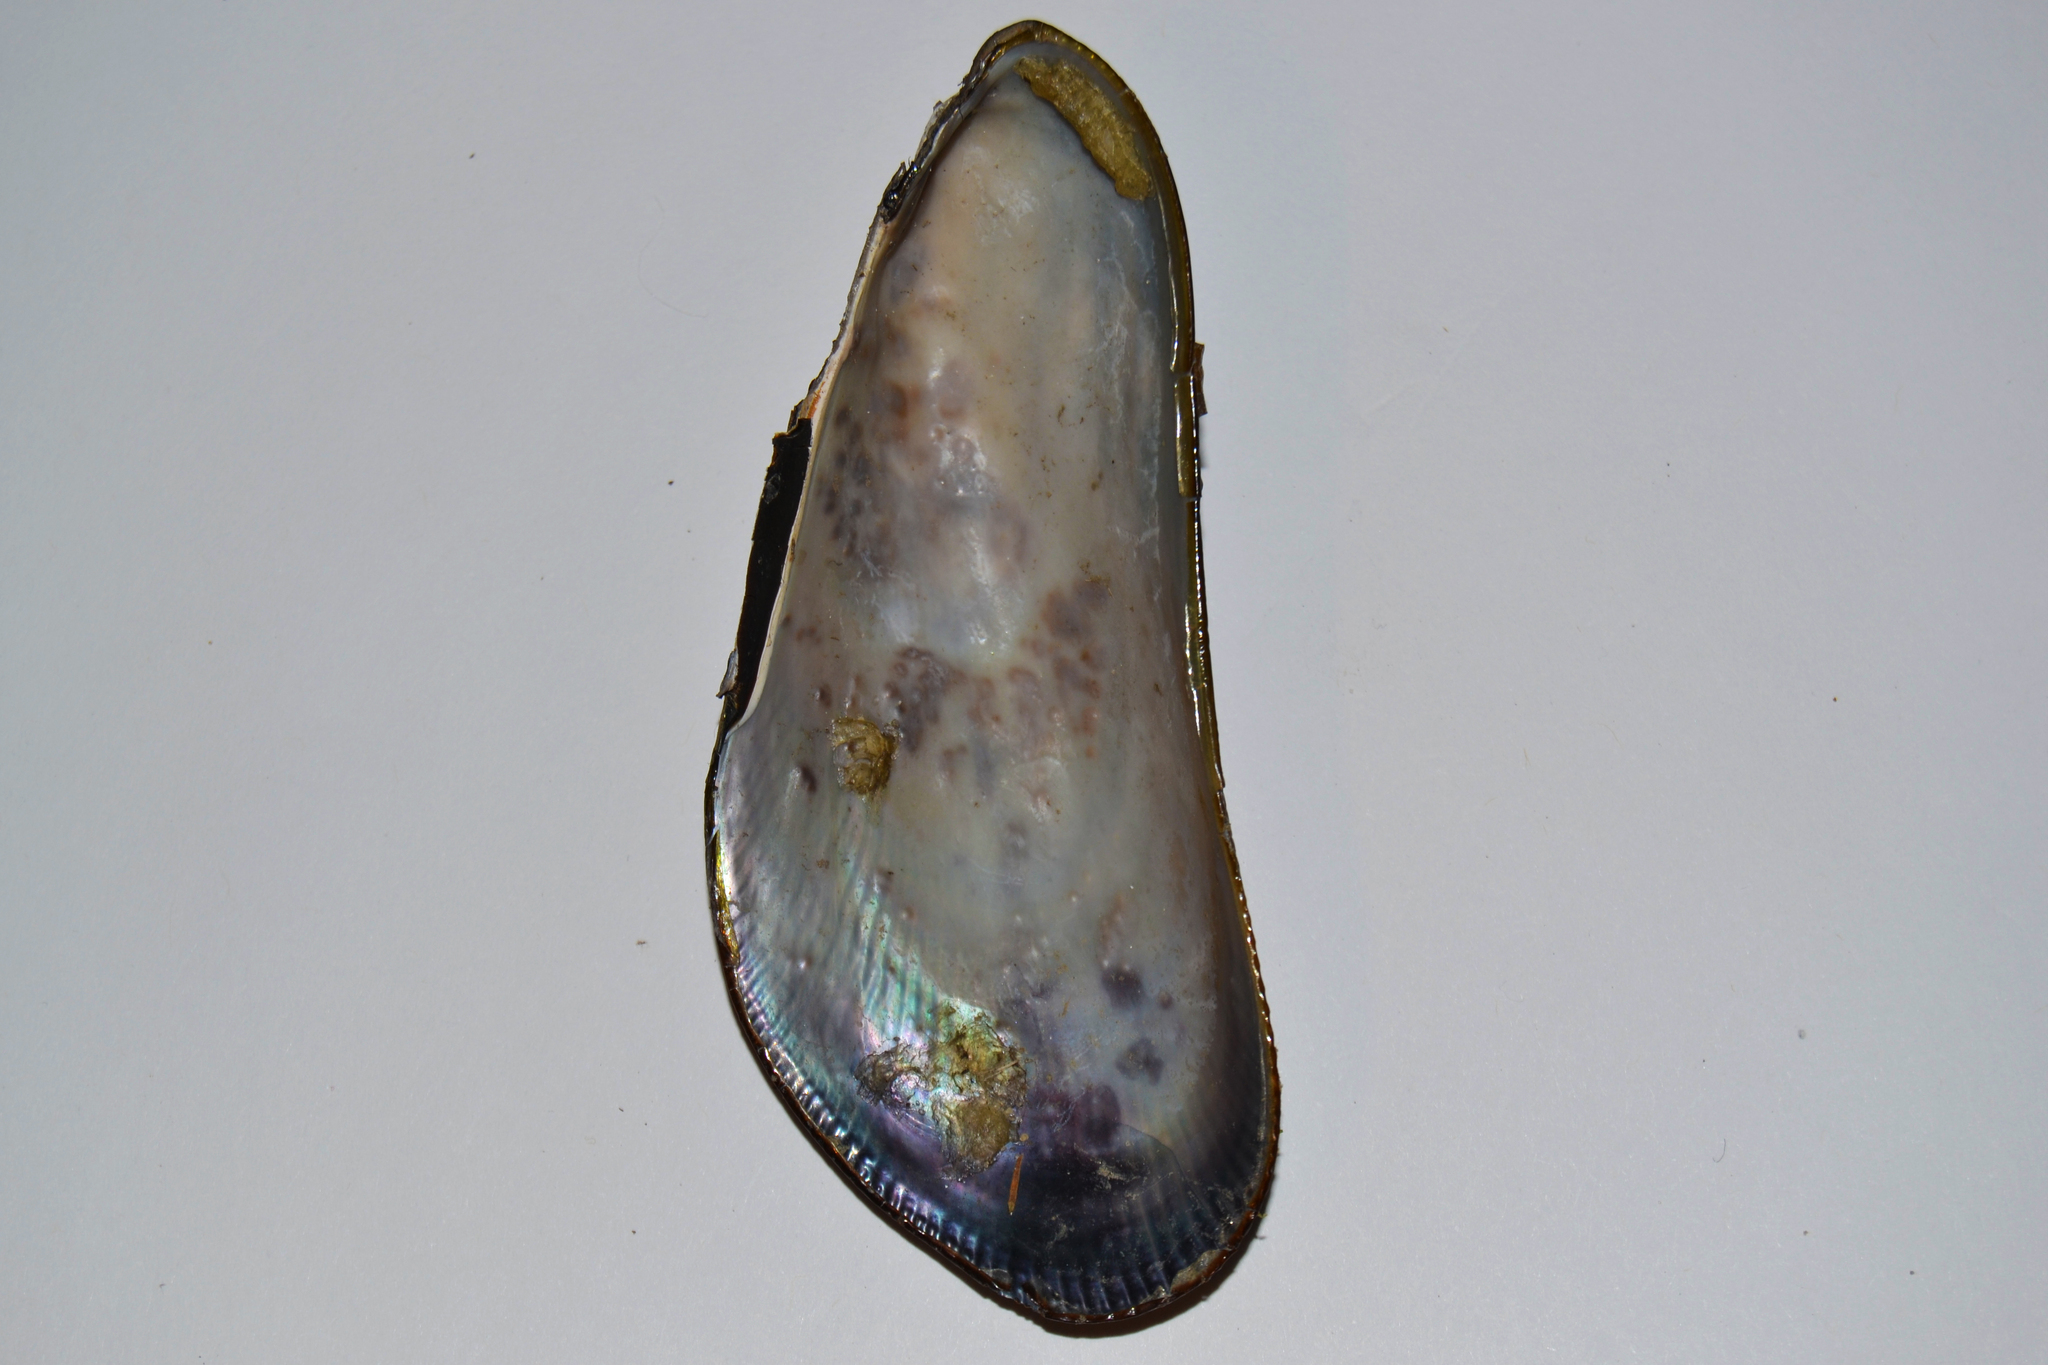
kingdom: Animalia
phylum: Mollusca
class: Bivalvia
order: Mytilida
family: Mytilidae
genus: Geukensia
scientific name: Geukensia demissa
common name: Ribbed mussel
